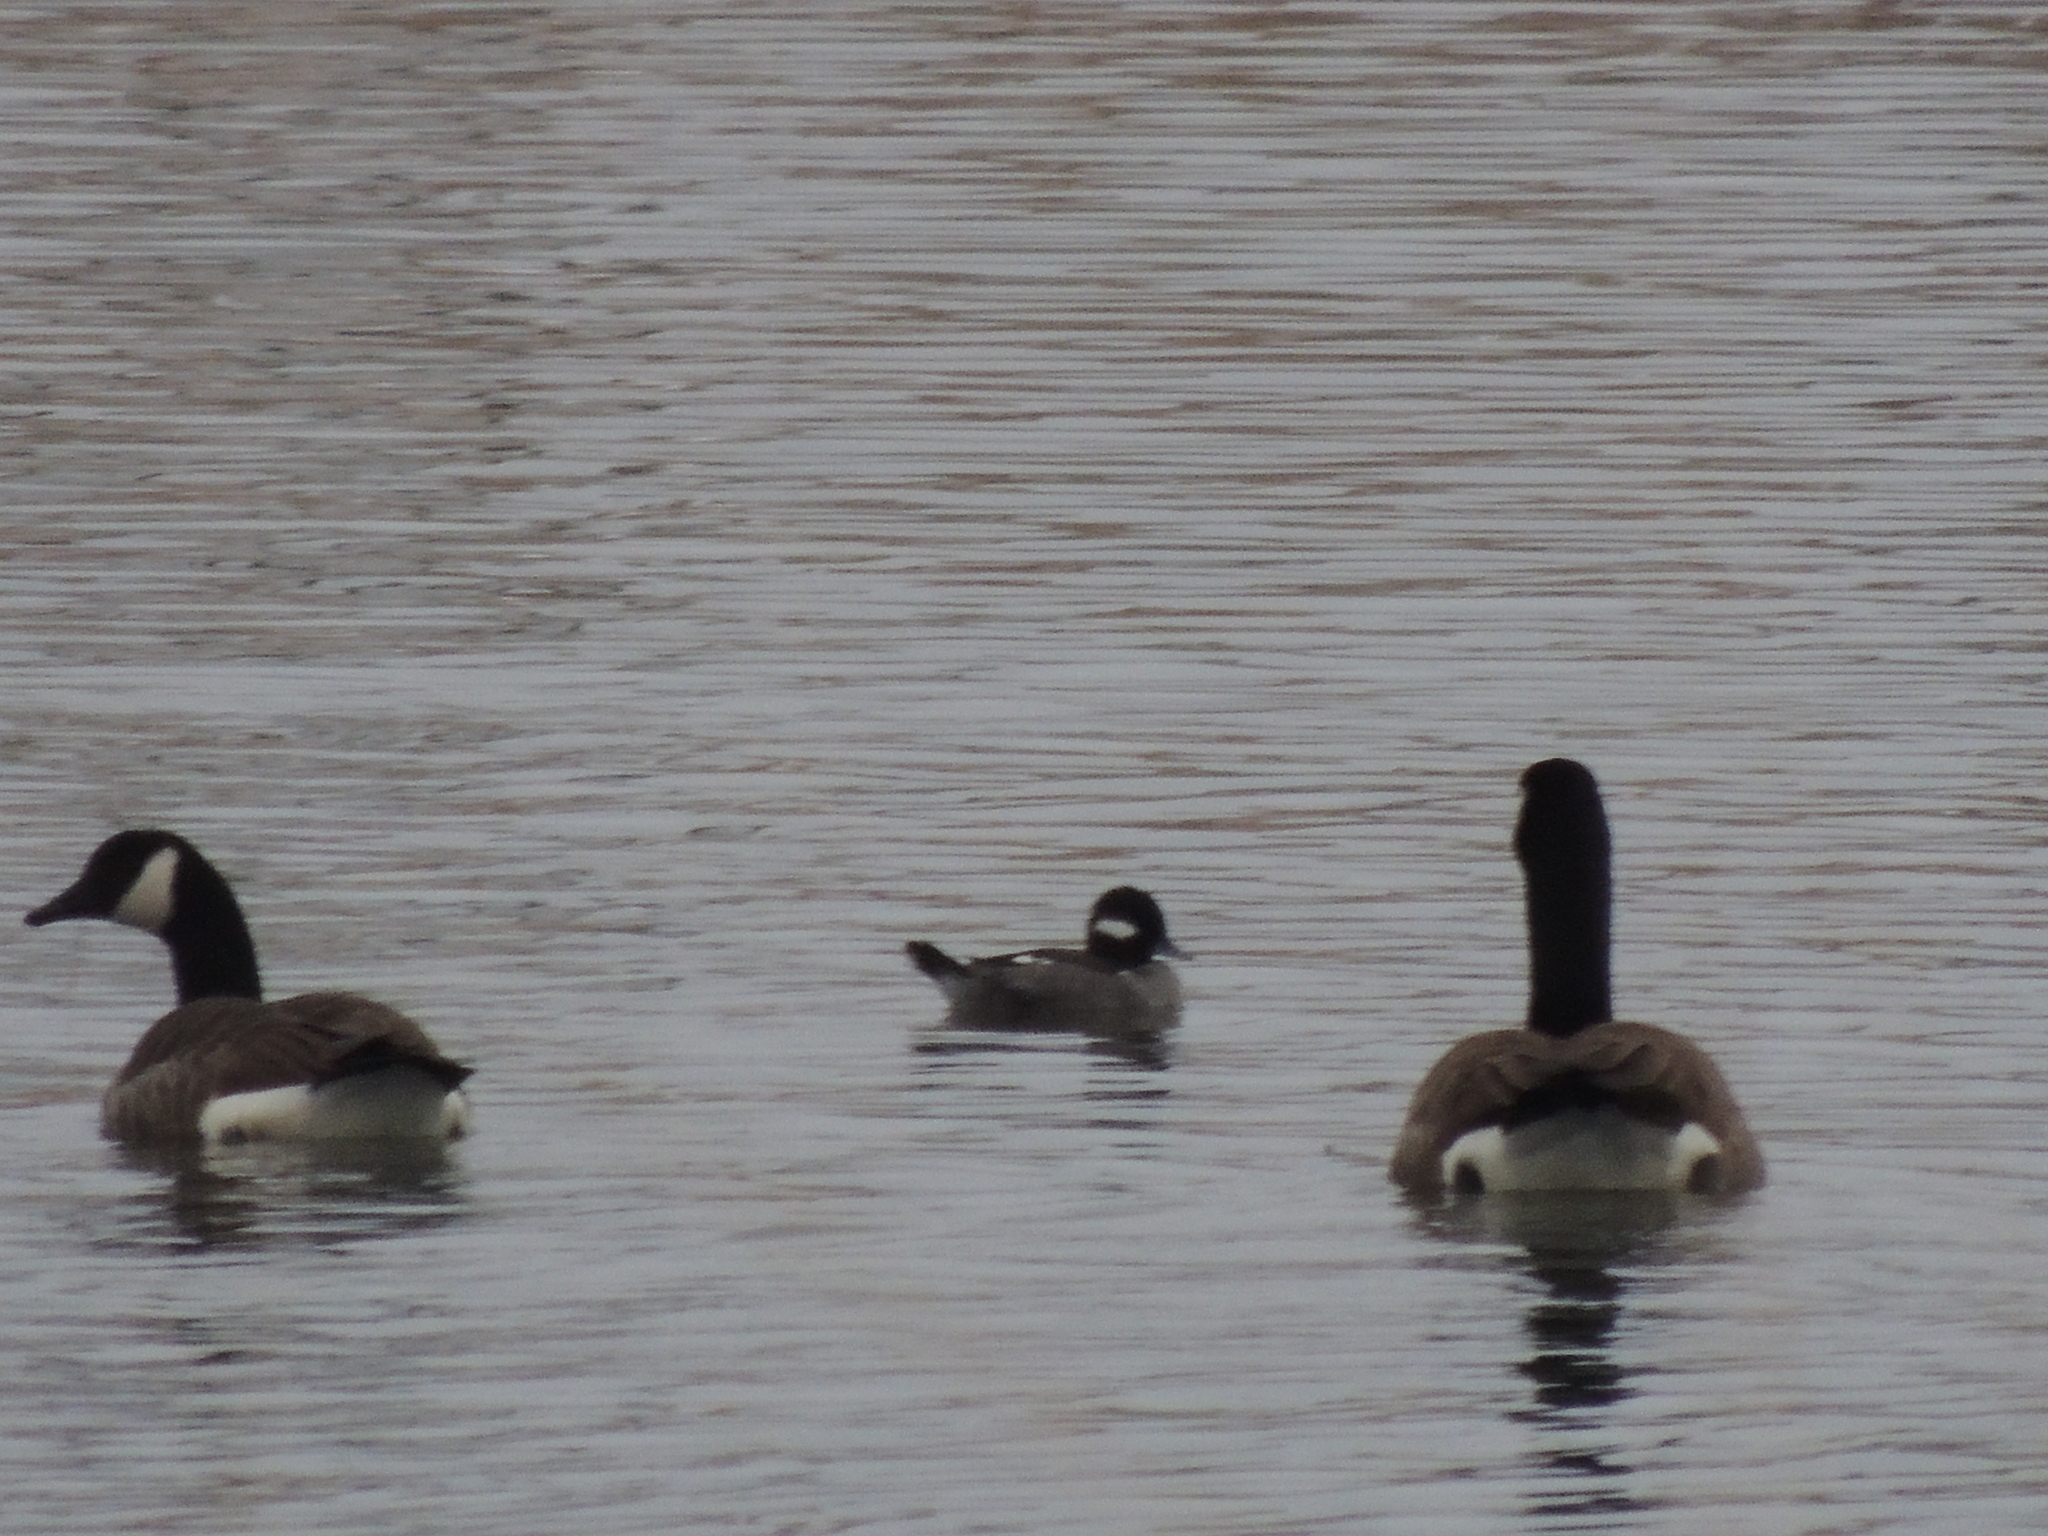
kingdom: Animalia
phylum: Chordata
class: Aves
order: Anseriformes
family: Anatidae
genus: Bucephala
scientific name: Bucephala albeola
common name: Bufflehead
